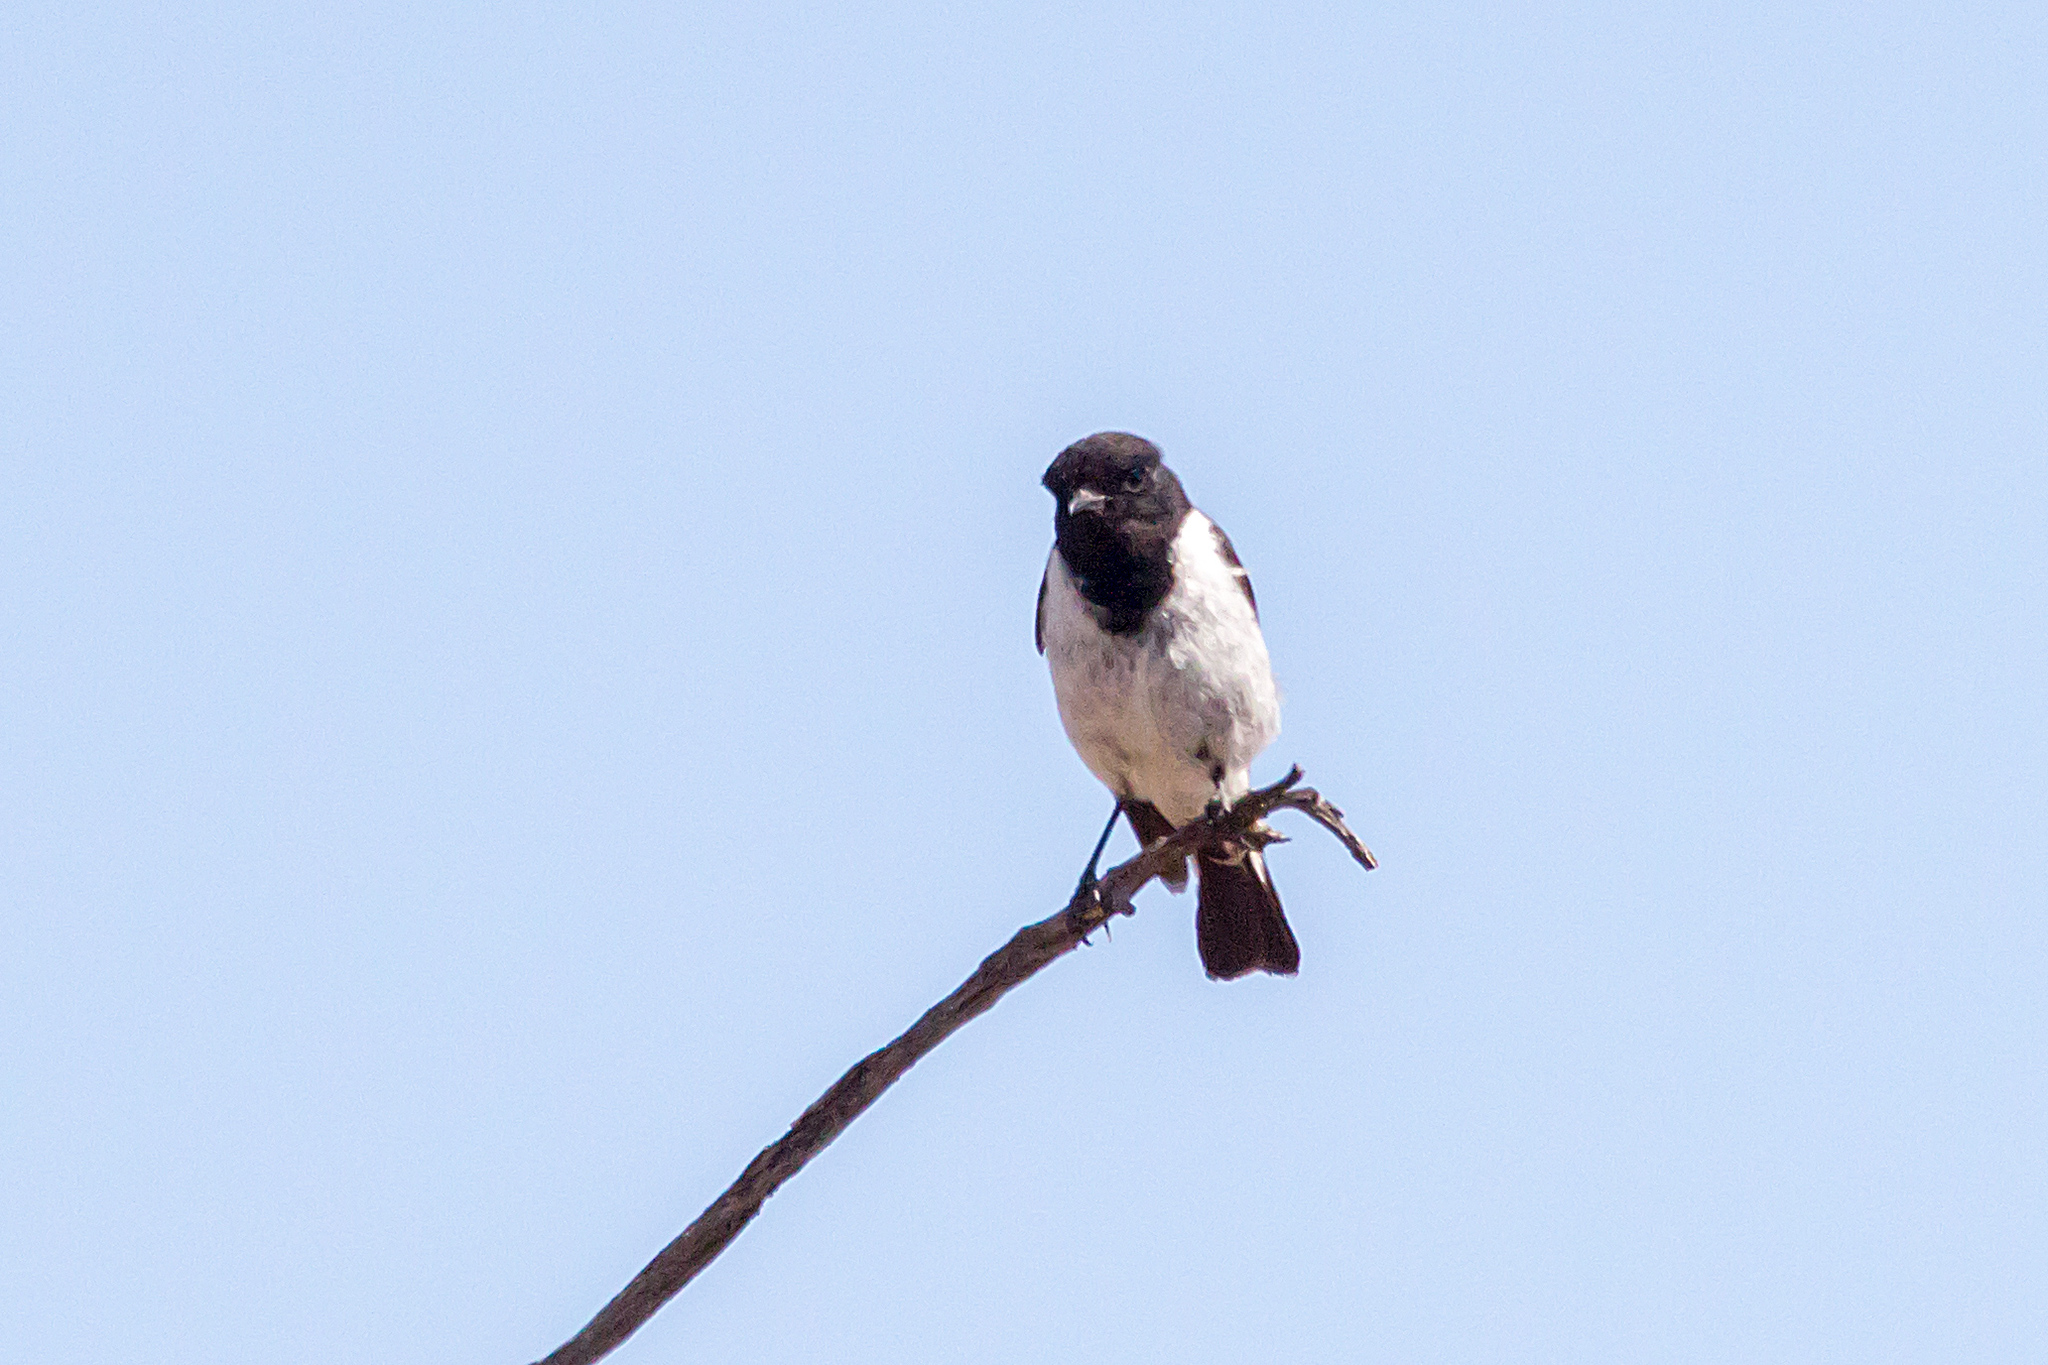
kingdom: Animalia
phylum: Chordata
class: Aves
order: Passeriformes
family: Petroicidae
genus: Melanodryas
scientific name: Melanodryas cucullata
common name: Hooded robin
